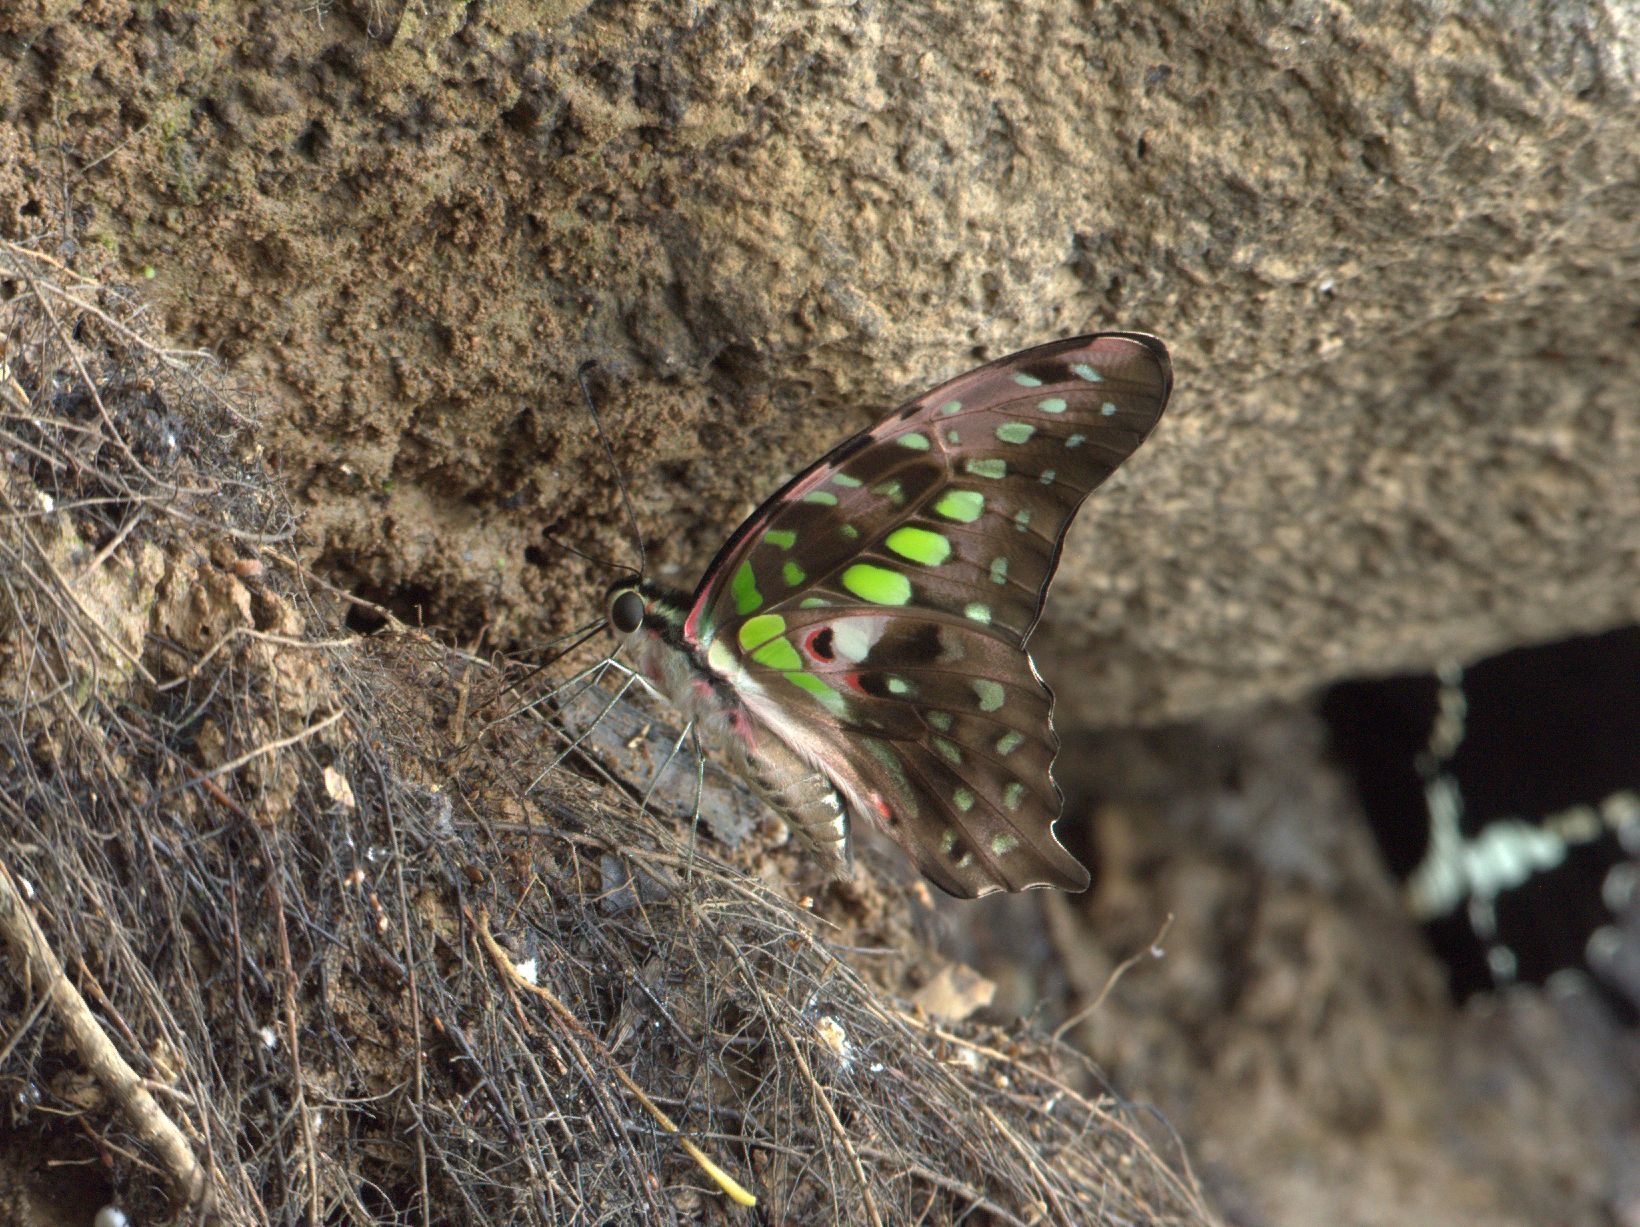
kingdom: Animalia
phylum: Arthropoda
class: Insecta
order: Lepidoptera
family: Papilionidae
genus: Graphium
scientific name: Graphium agamemnon
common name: Tailed jay
